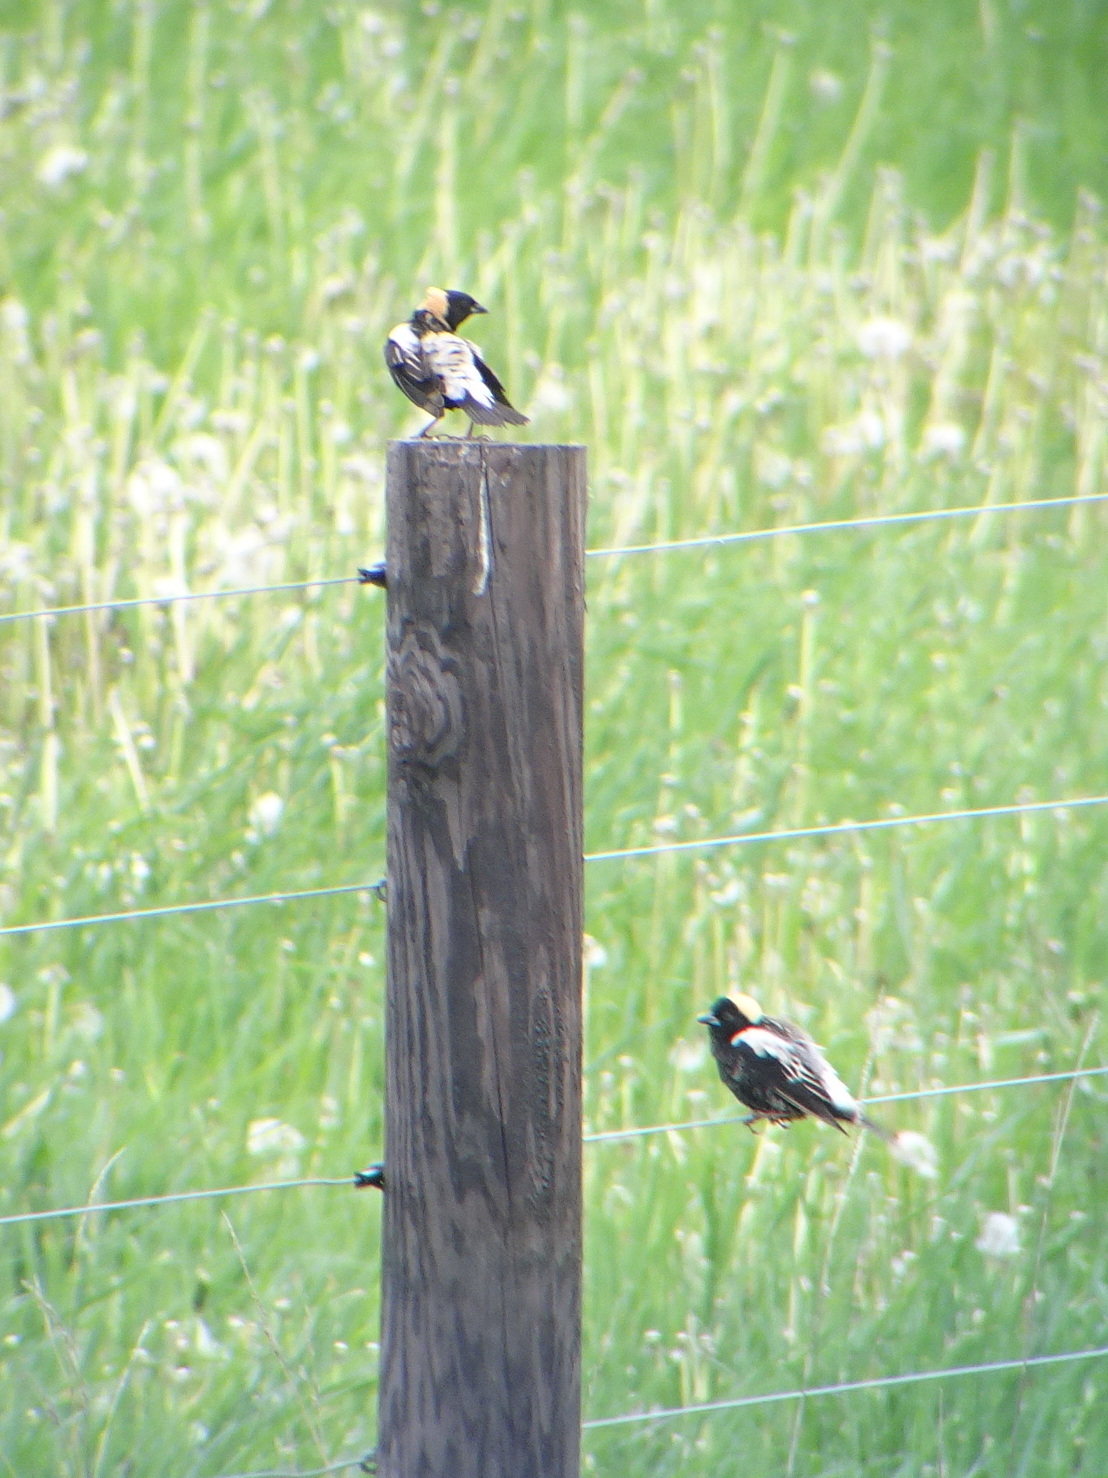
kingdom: Animalia
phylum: Chordata
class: Aves
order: Passeriformes
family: Icteridae
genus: Dolichonyx
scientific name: Dolichonyx oryzivorus
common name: Bobolink
